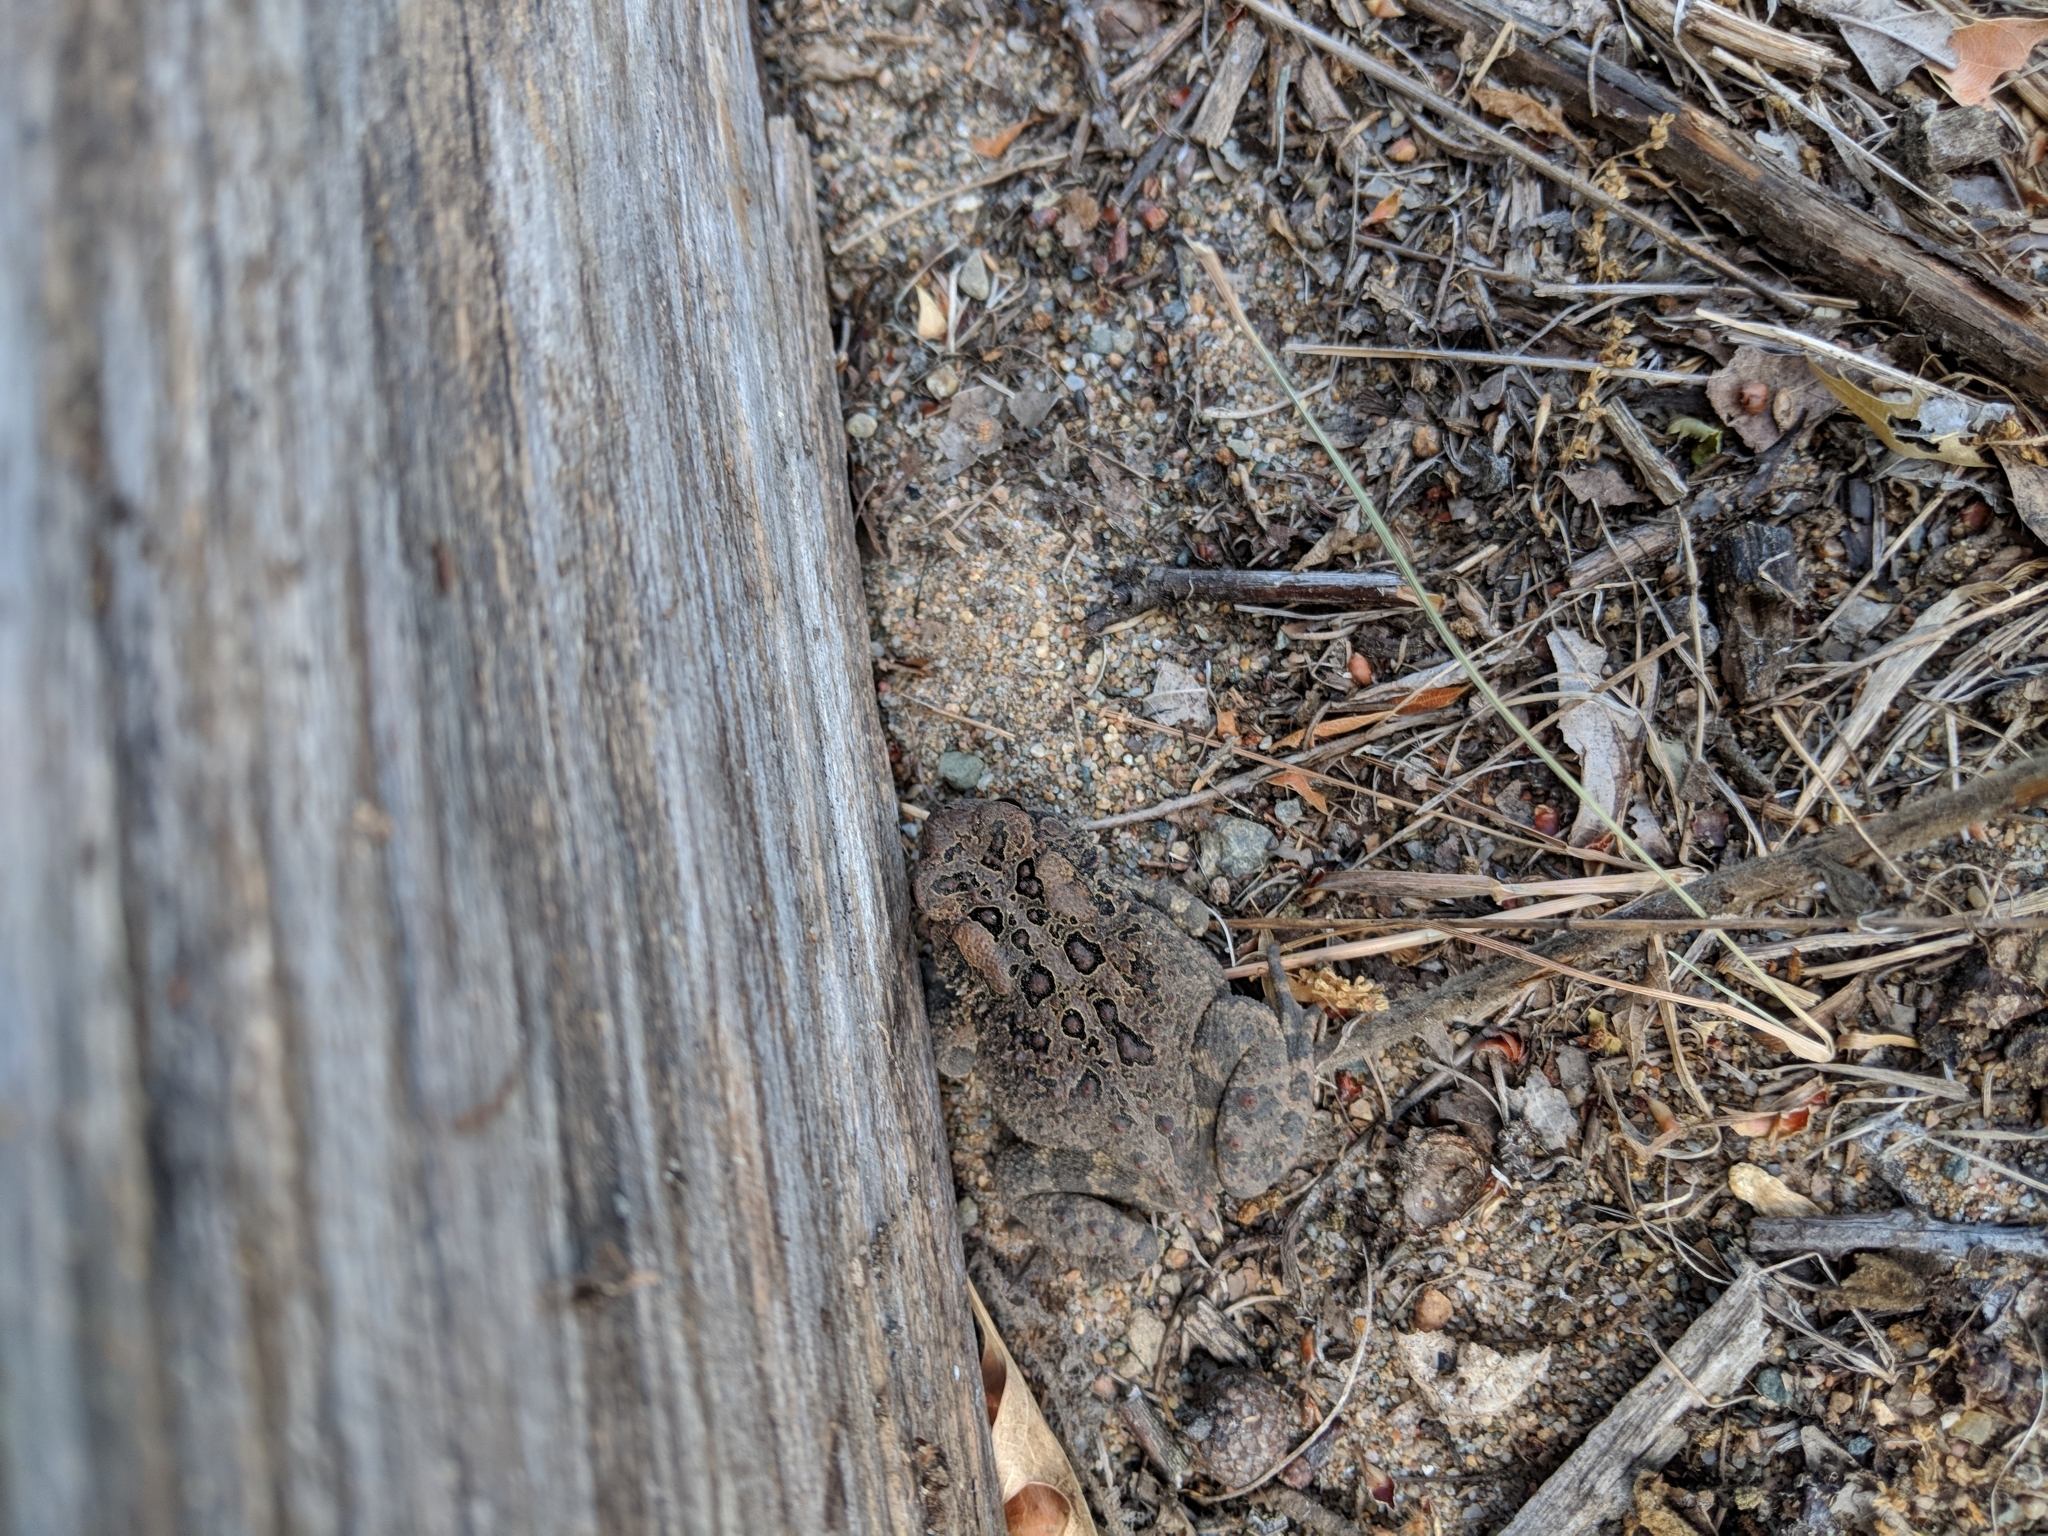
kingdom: Animalia
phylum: Chordata
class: Amphibia
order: Anura
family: Bufonidae
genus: Anaxyrus
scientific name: Anaxyrus americanus
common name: American toad
